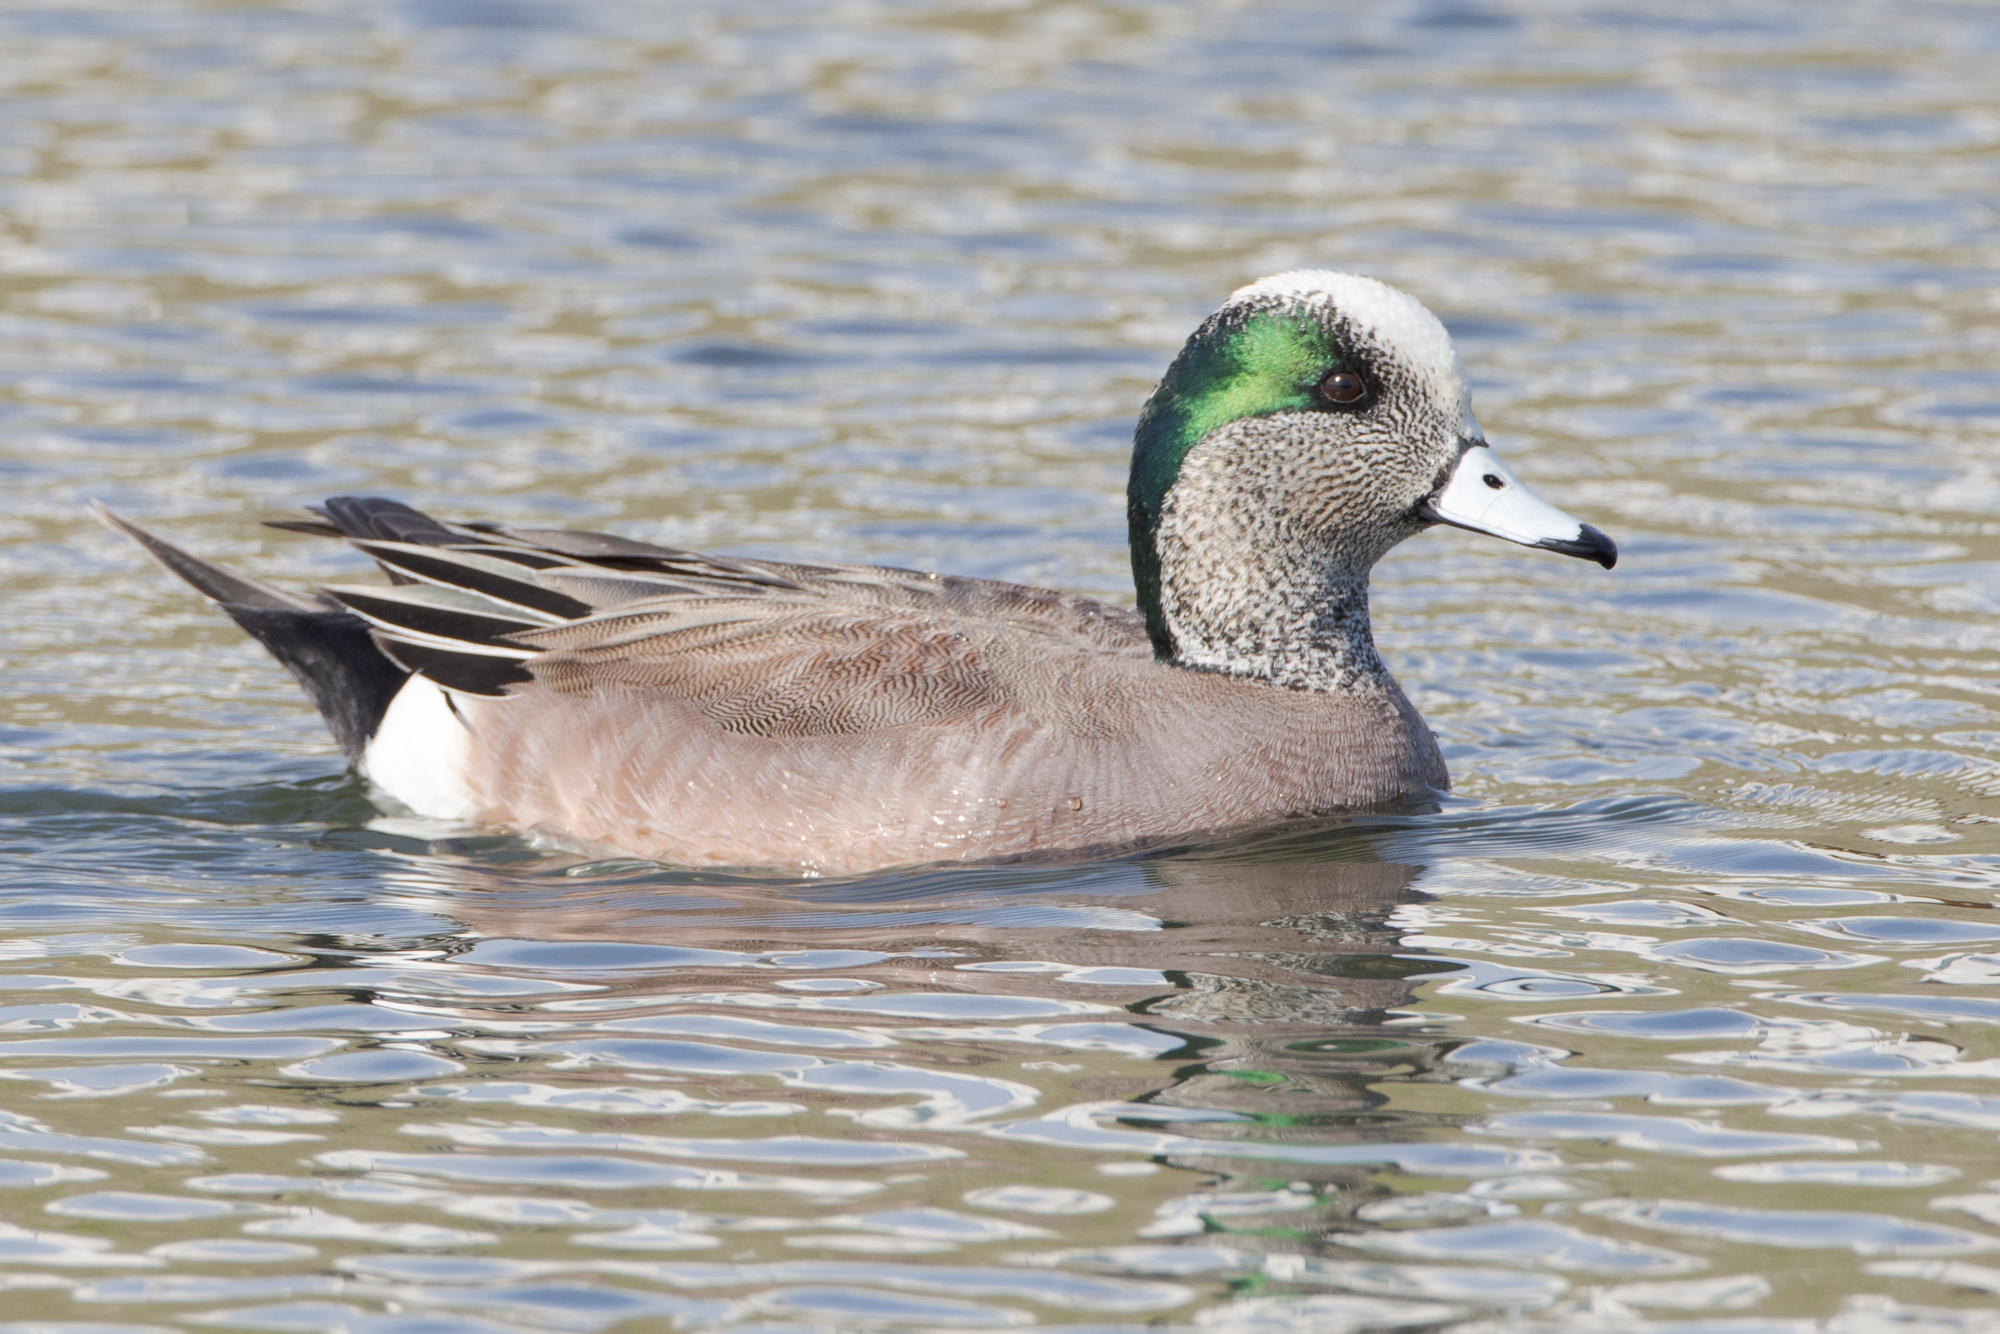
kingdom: Animalia
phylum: Chordata
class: Aves
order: Anseriformes
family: Anatidae
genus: Mareca
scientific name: Mareca americana
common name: American wigeon
